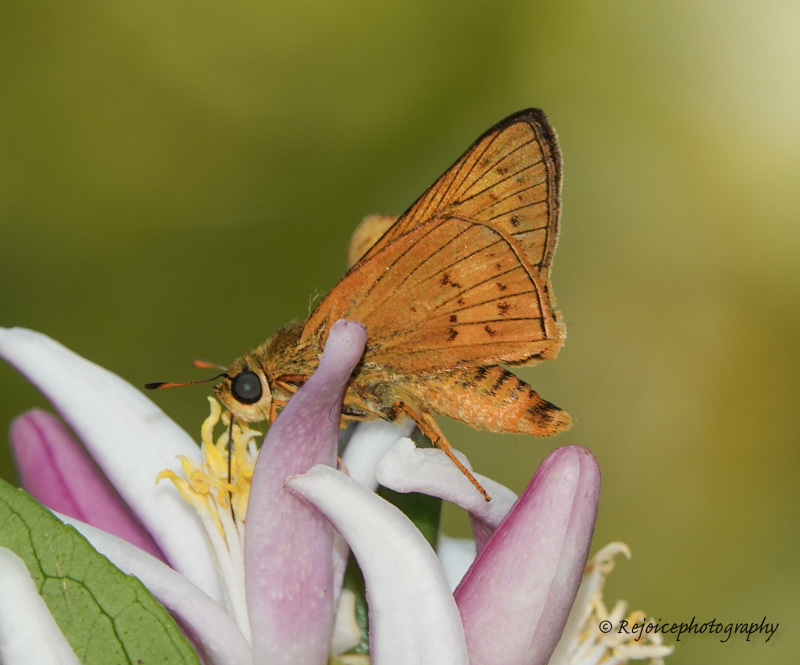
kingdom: Animalia
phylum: Arthropoda
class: Insecta
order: Lepidoptera
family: Hesperiidae
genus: Cephrenes
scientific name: Cephrenes
